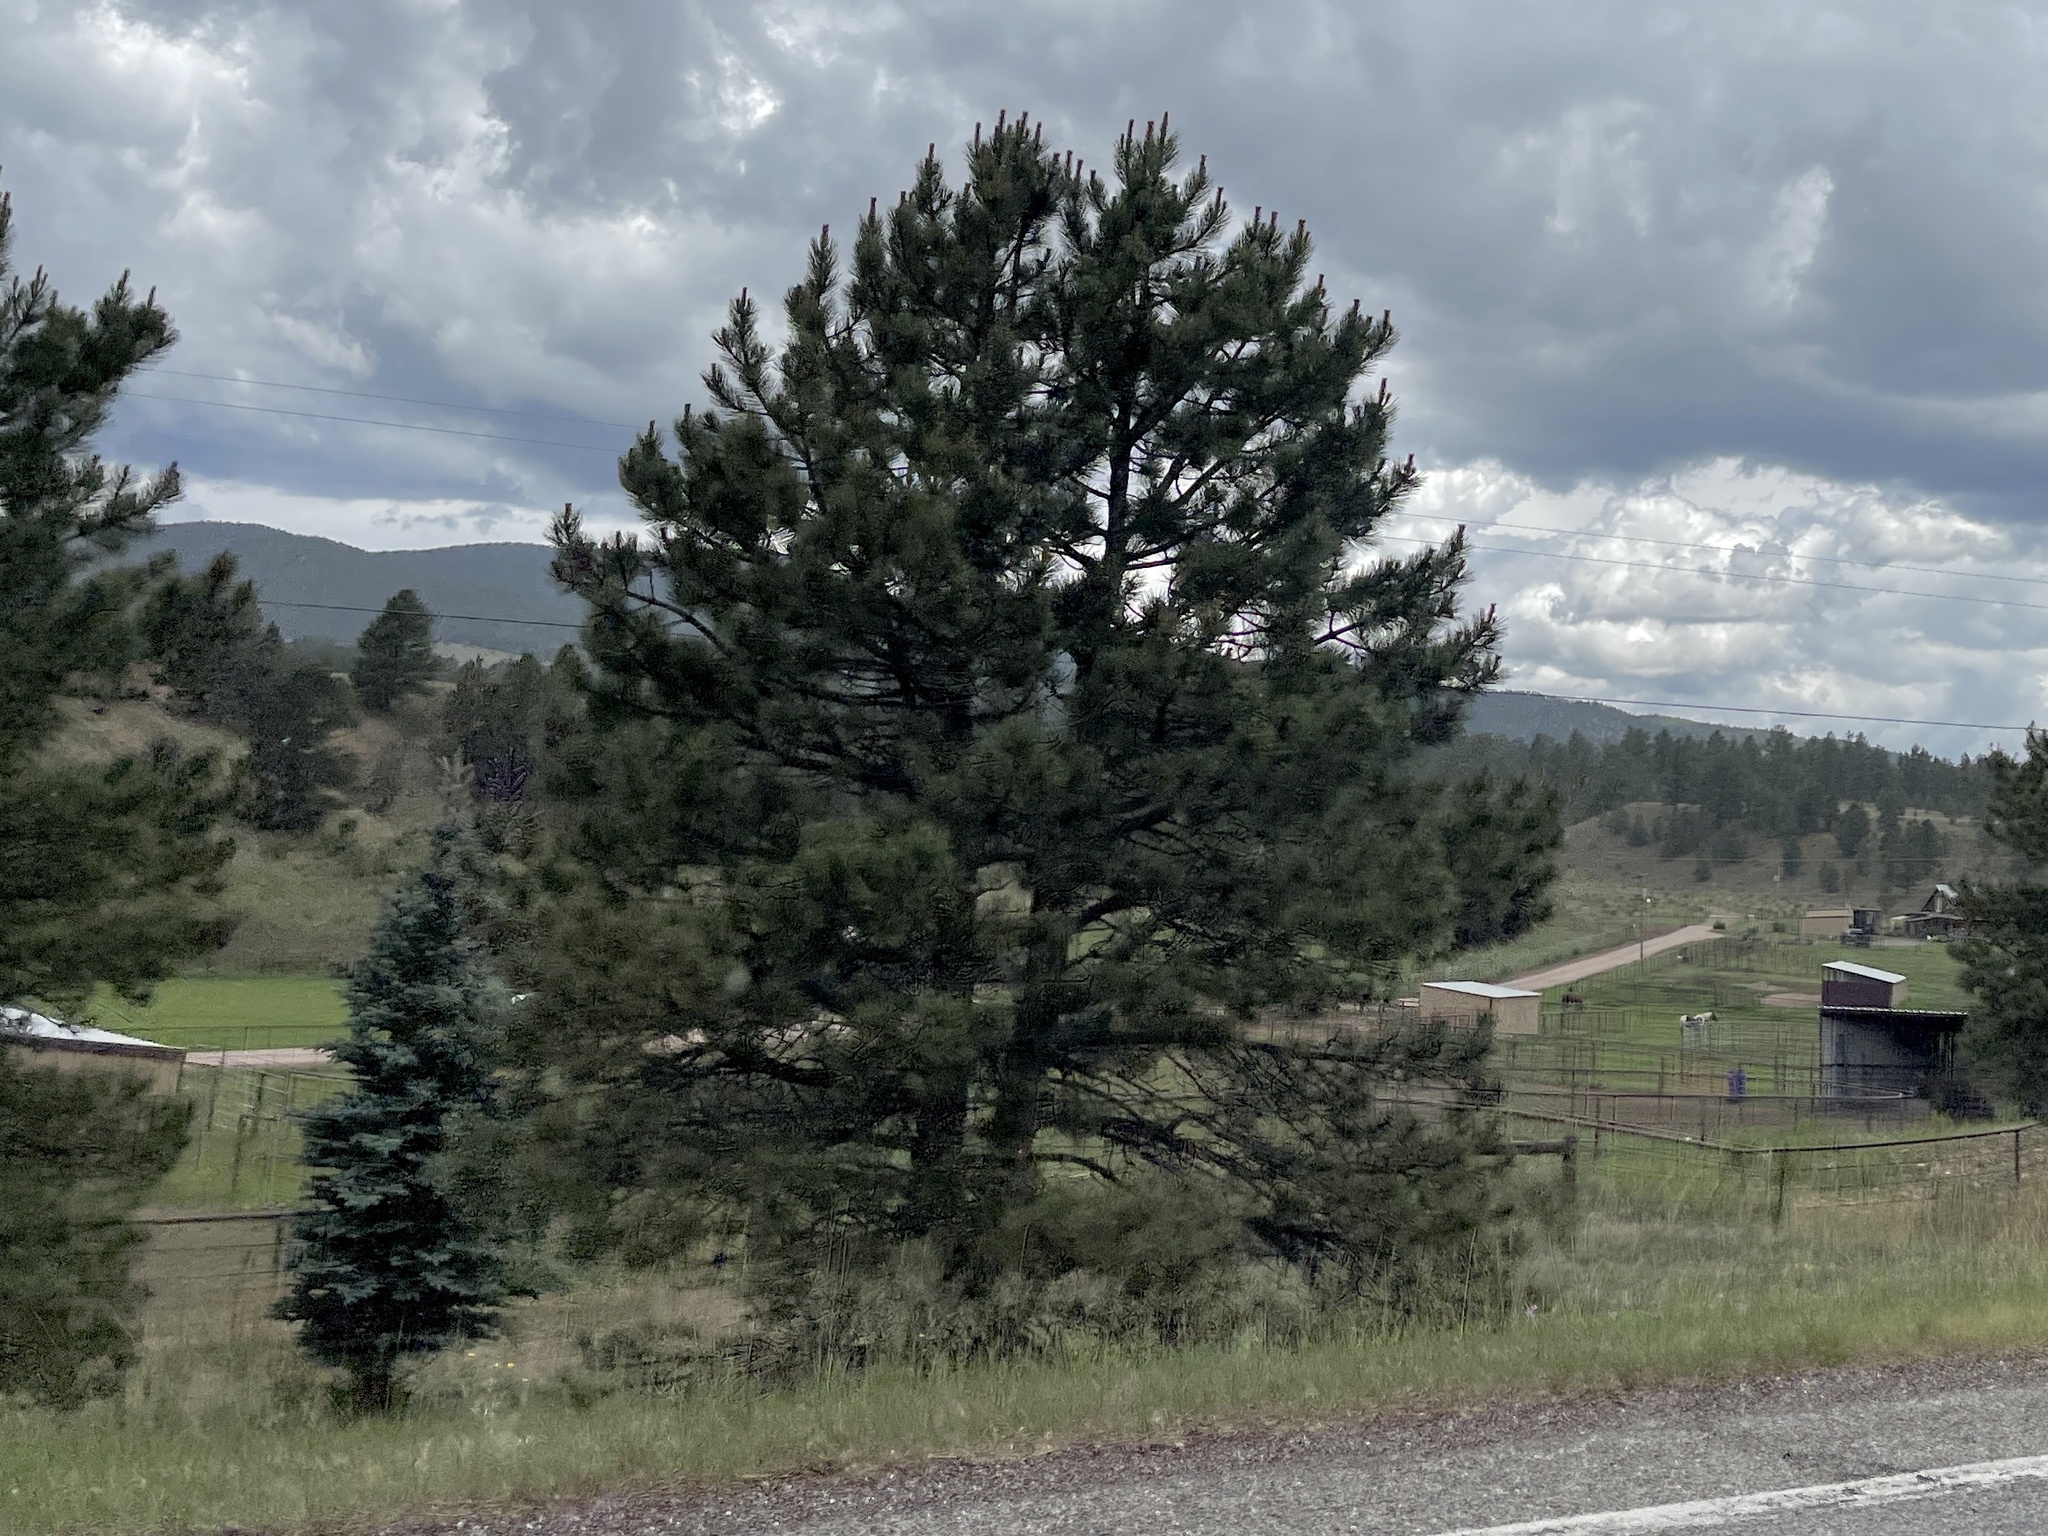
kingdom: Plantae
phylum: Tracheophyta
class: Pinopsida
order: Pinales
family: Pinaceae
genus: Pinus
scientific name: Pinus ponderosa
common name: Western yellow-pine
